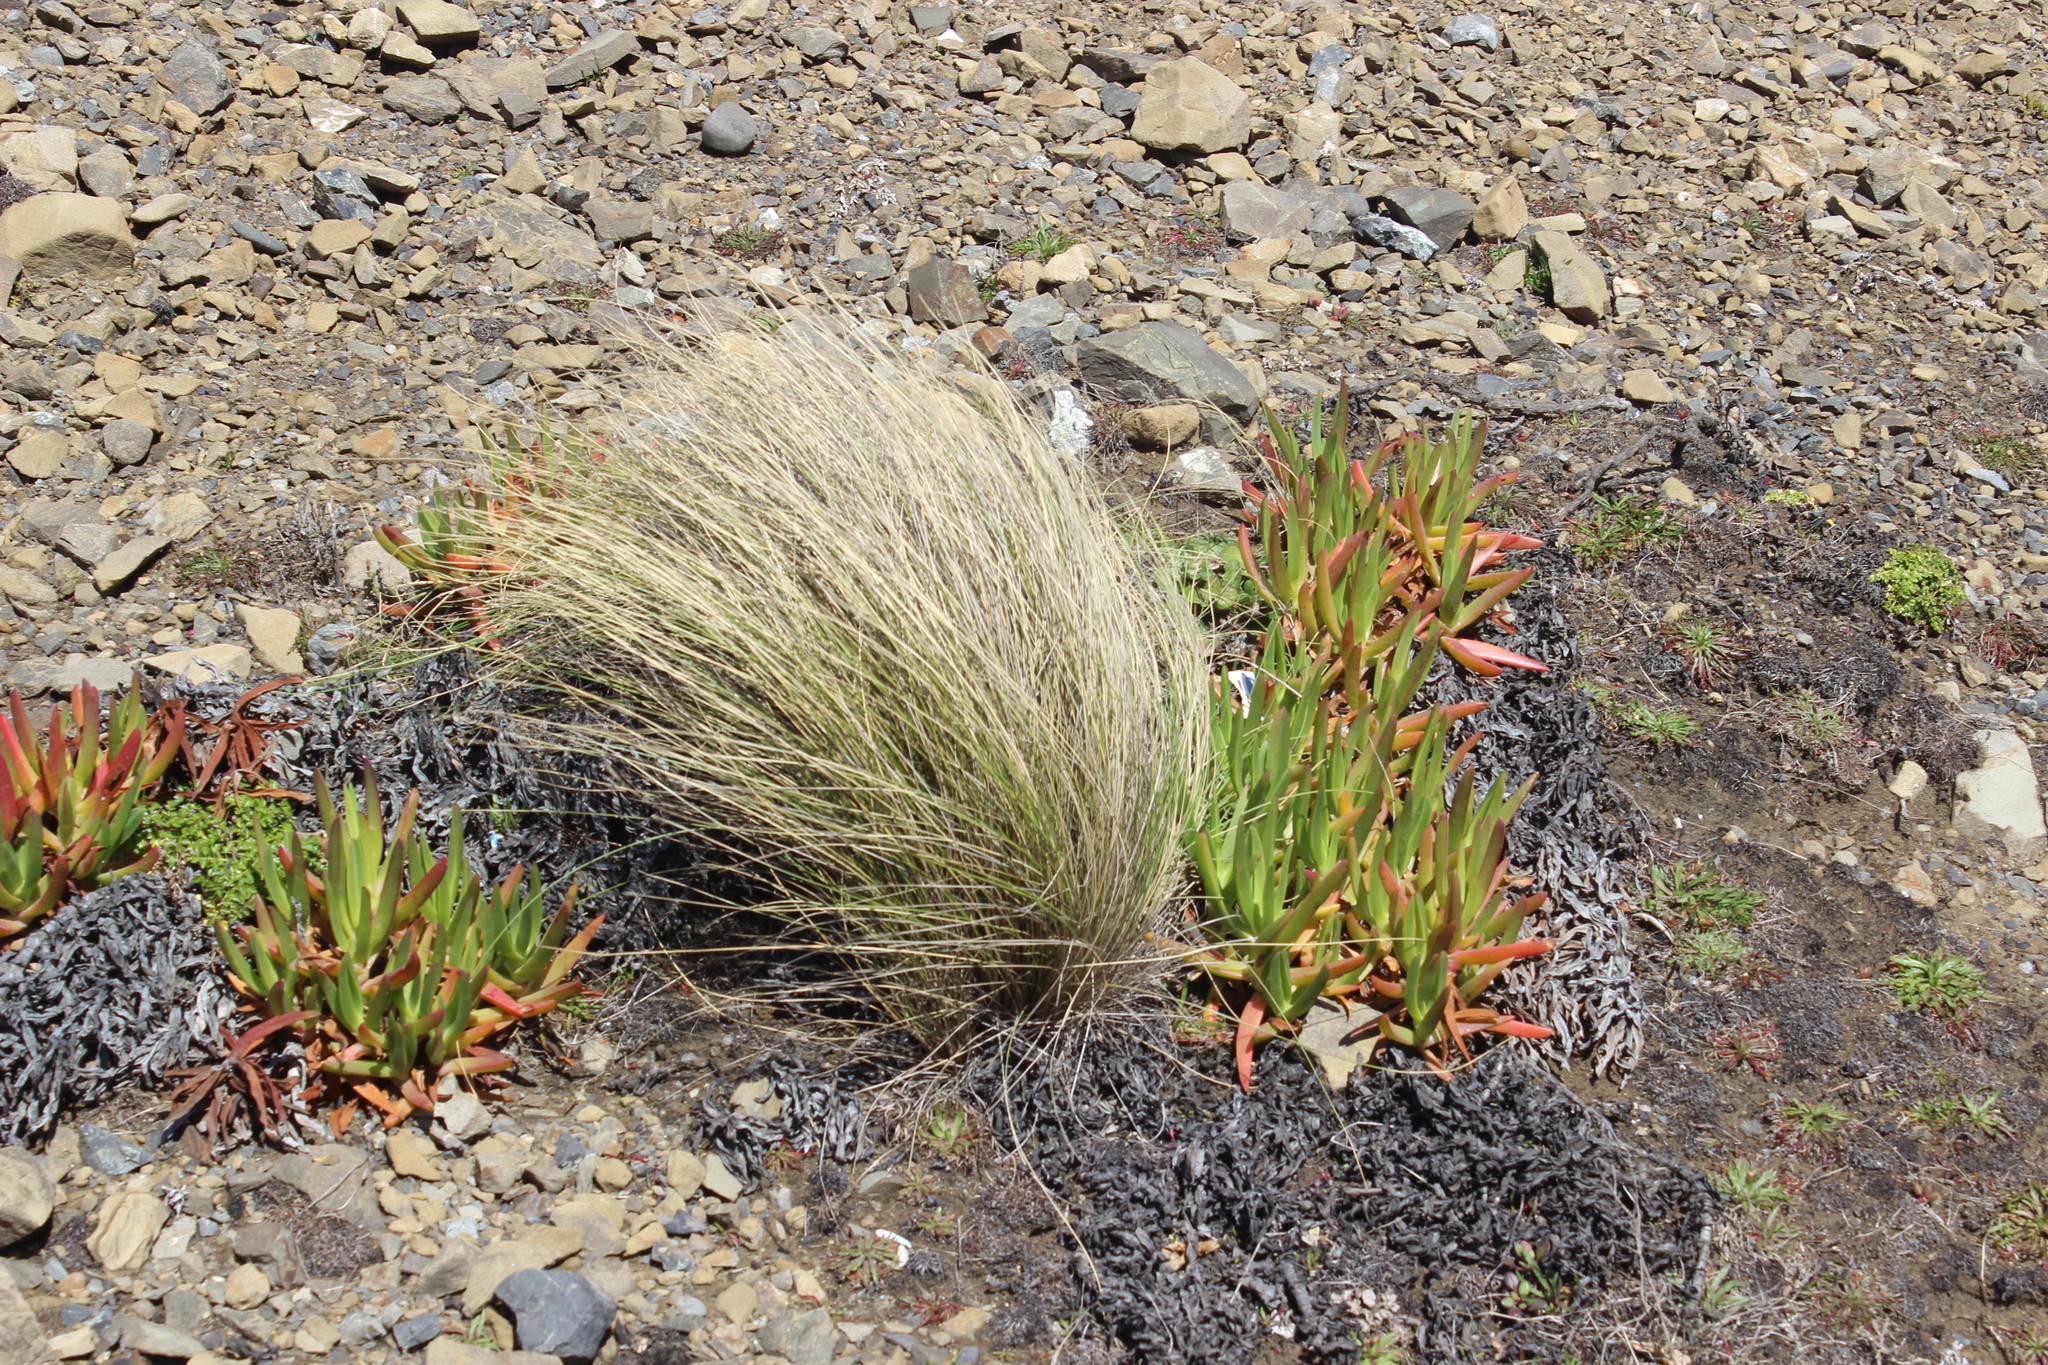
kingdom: Plantae
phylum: Tracheophyta
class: Liliopsida
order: Poales
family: Poaceae
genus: Poa
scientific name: Poa cita
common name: Silver tussock
